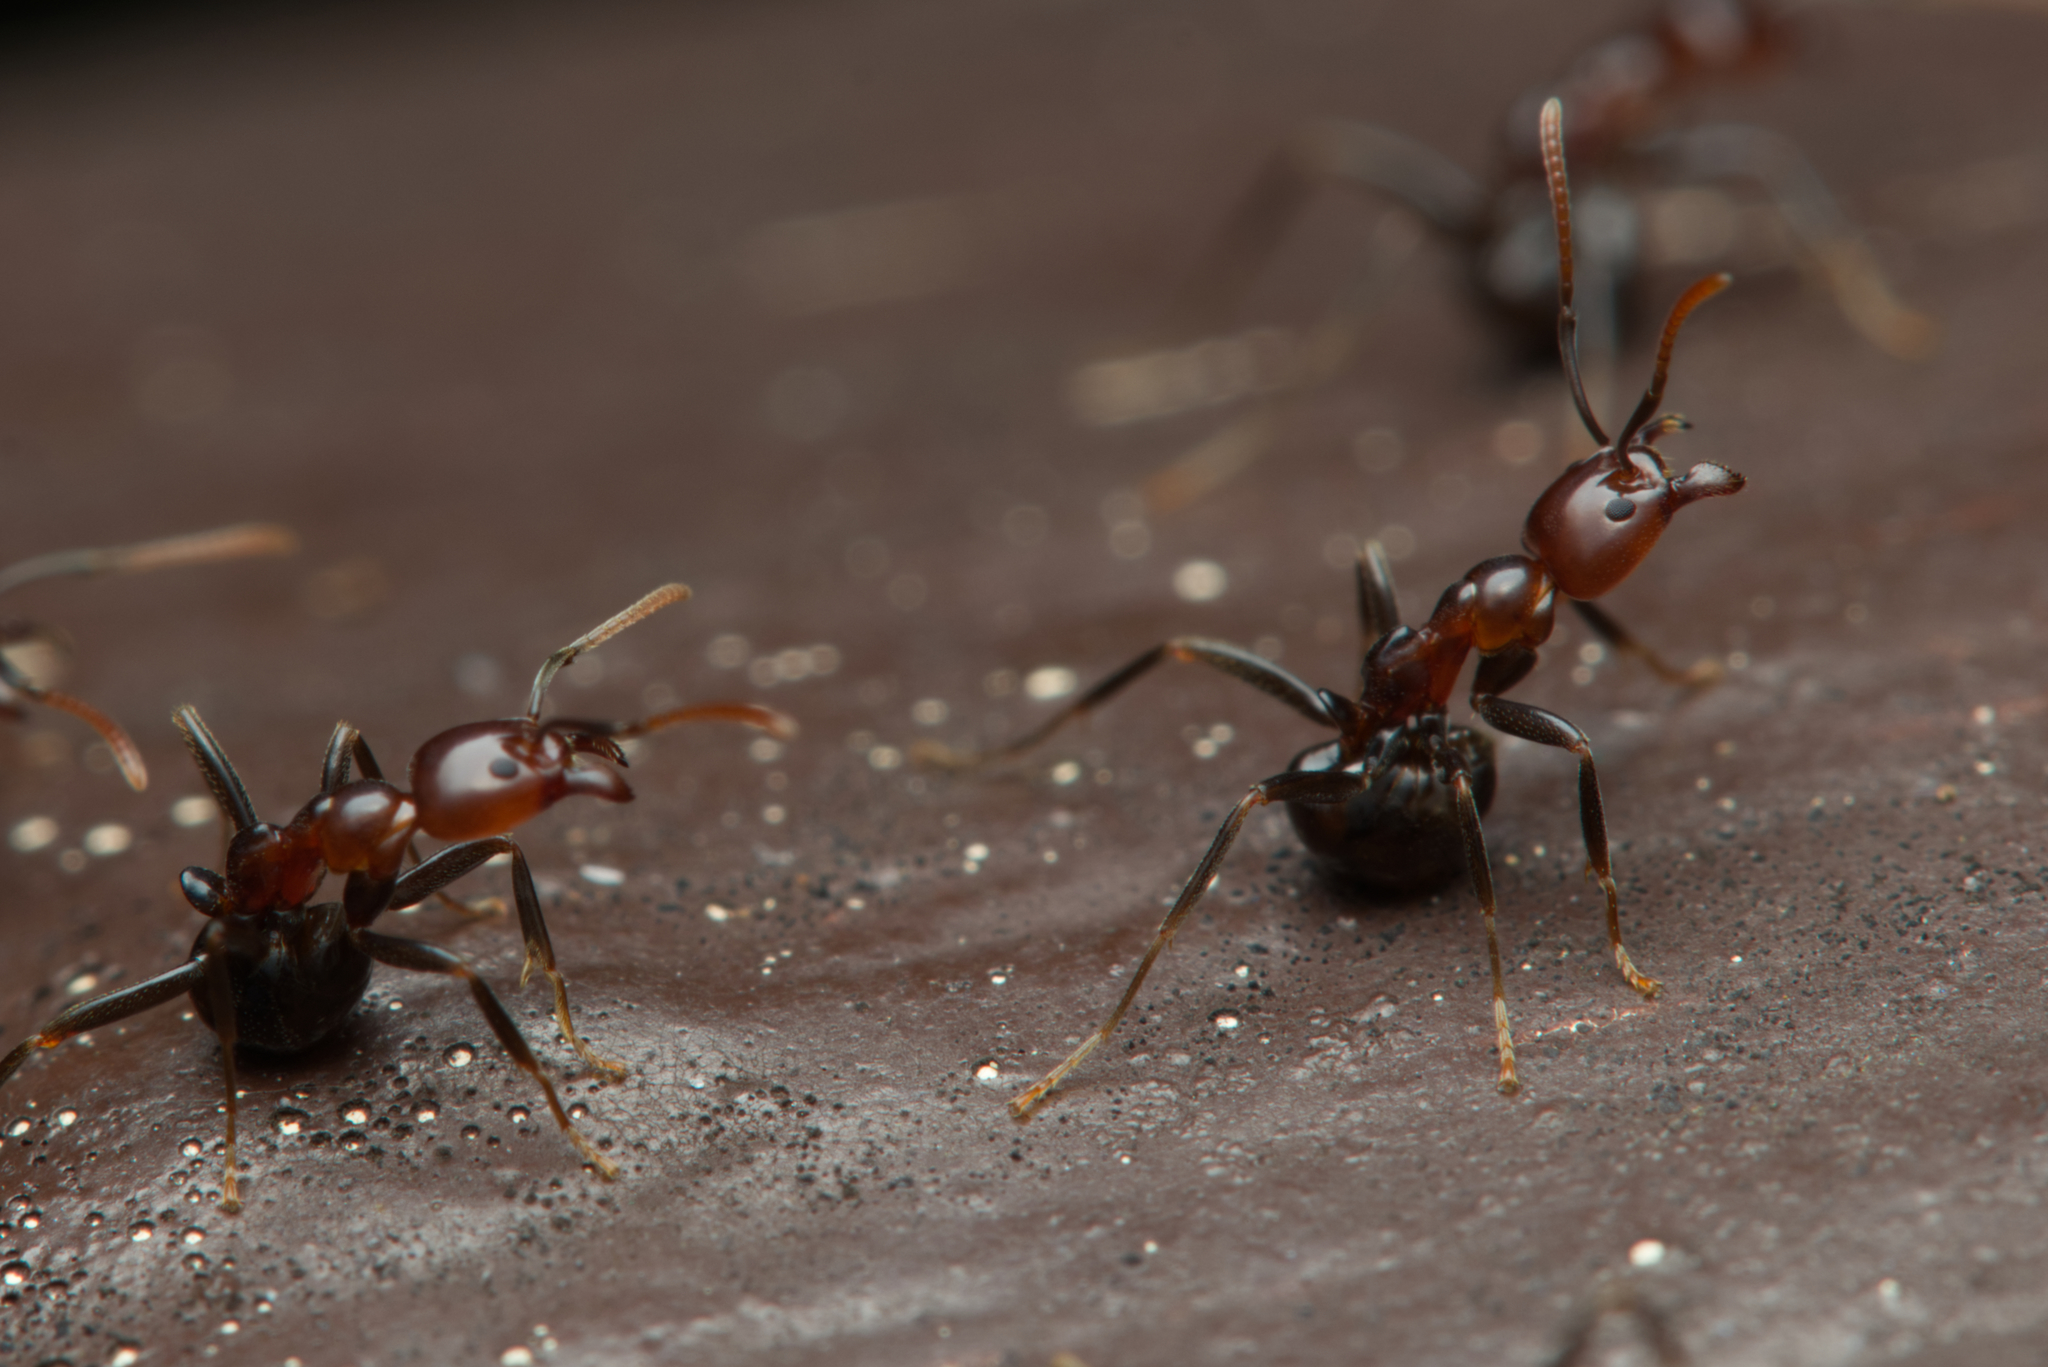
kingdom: Animalia
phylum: Arthropoda
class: Insecta
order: Hymenoptera
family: Formicidae
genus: Papyrius
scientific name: Papyrius nitidus
